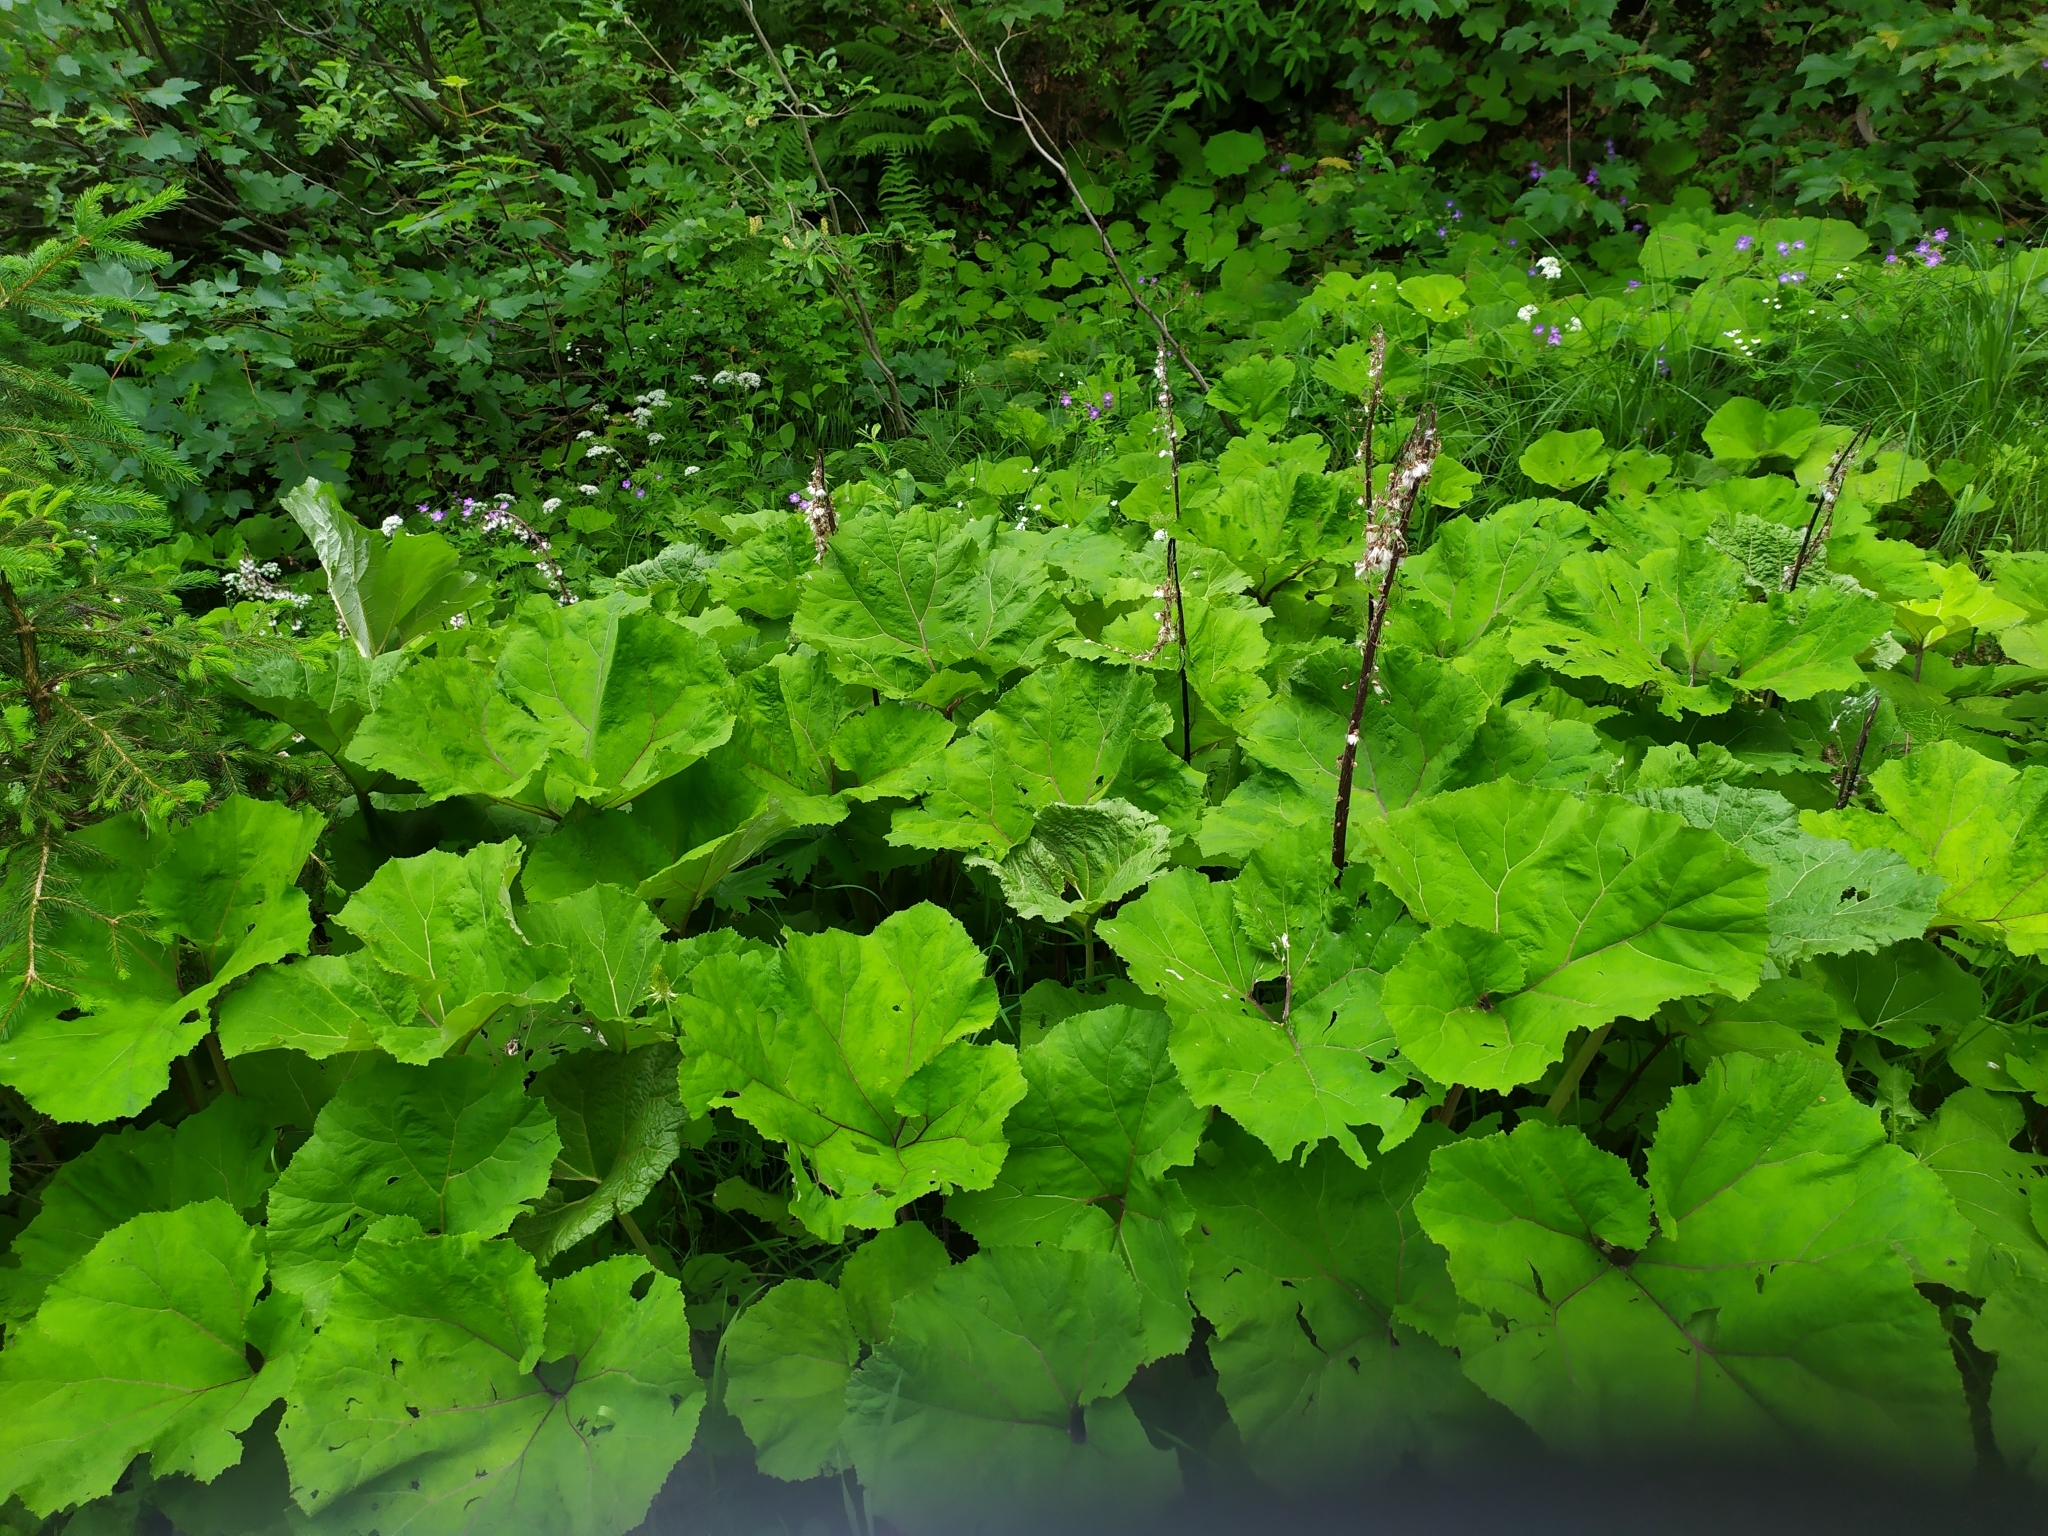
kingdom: Plantae
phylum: Tracheophyta
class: Magnoliopsida
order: Asterales
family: Asteraceae
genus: Petasites
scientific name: Petasites hybridus
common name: Butterbur
